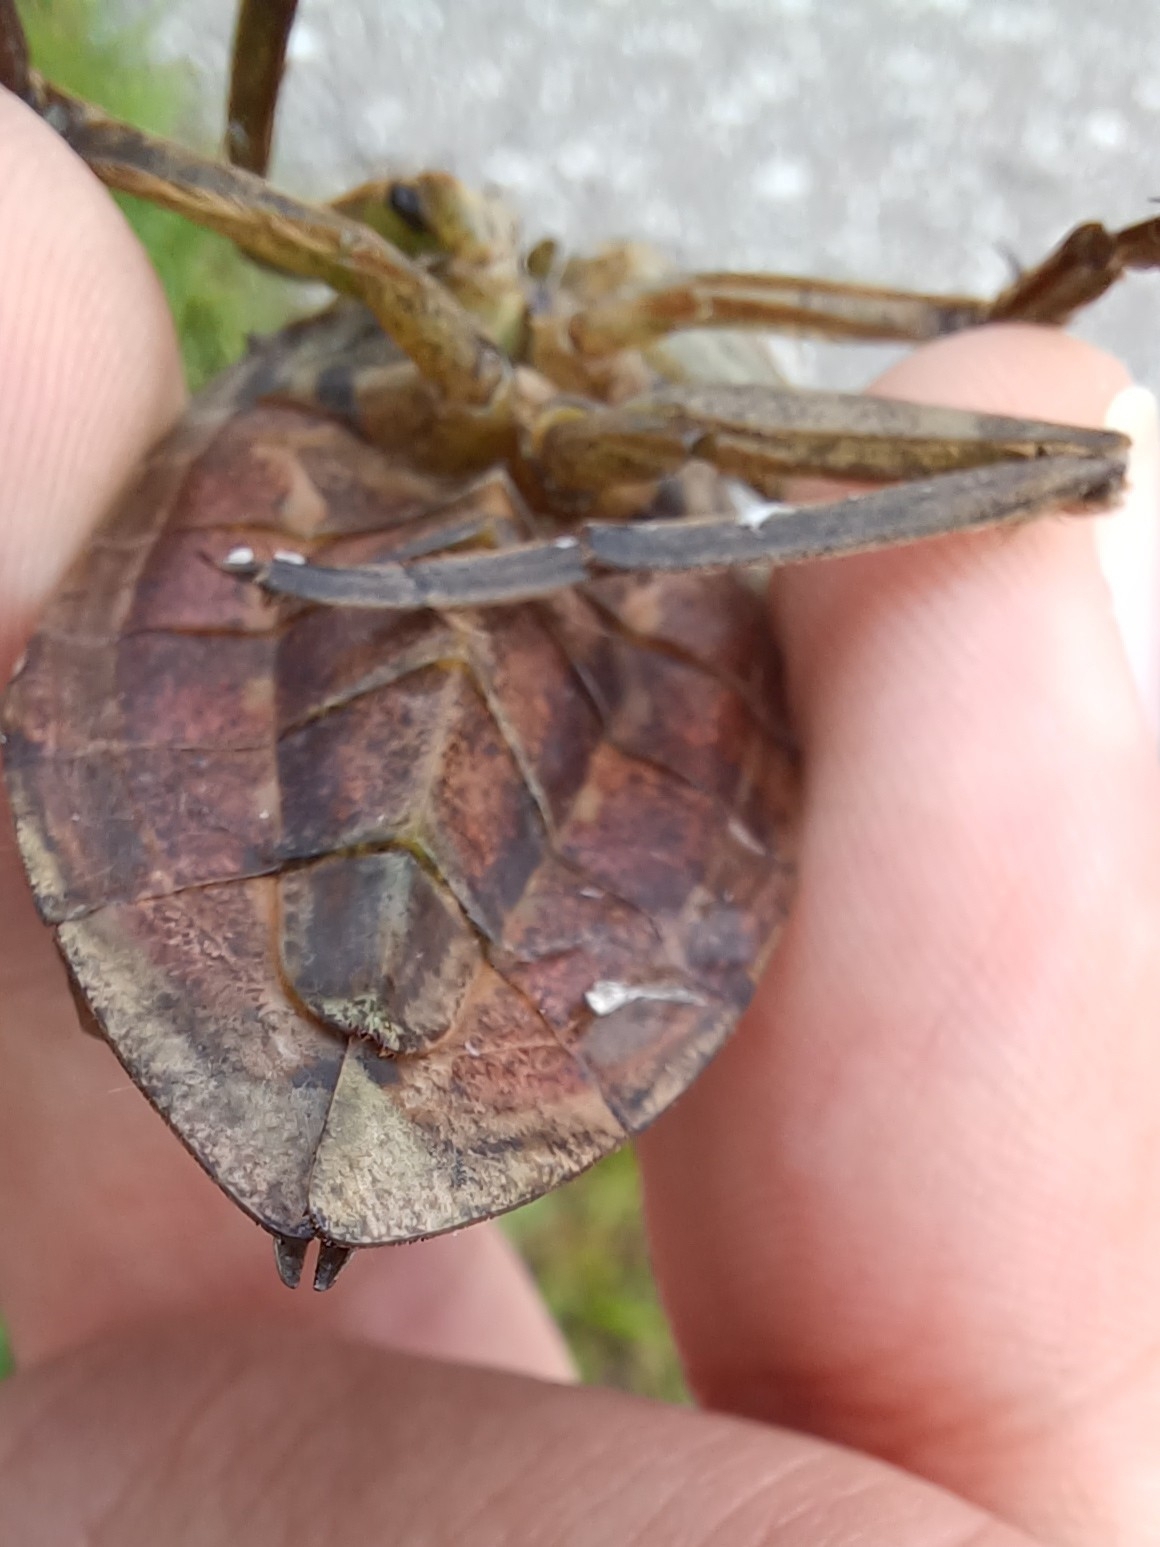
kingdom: Animalia
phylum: Arthropoda
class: Insecta
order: Hemiptera
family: Belostomatidae
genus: Lethocerus
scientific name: Lethocerus americanus
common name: Giant water bug
